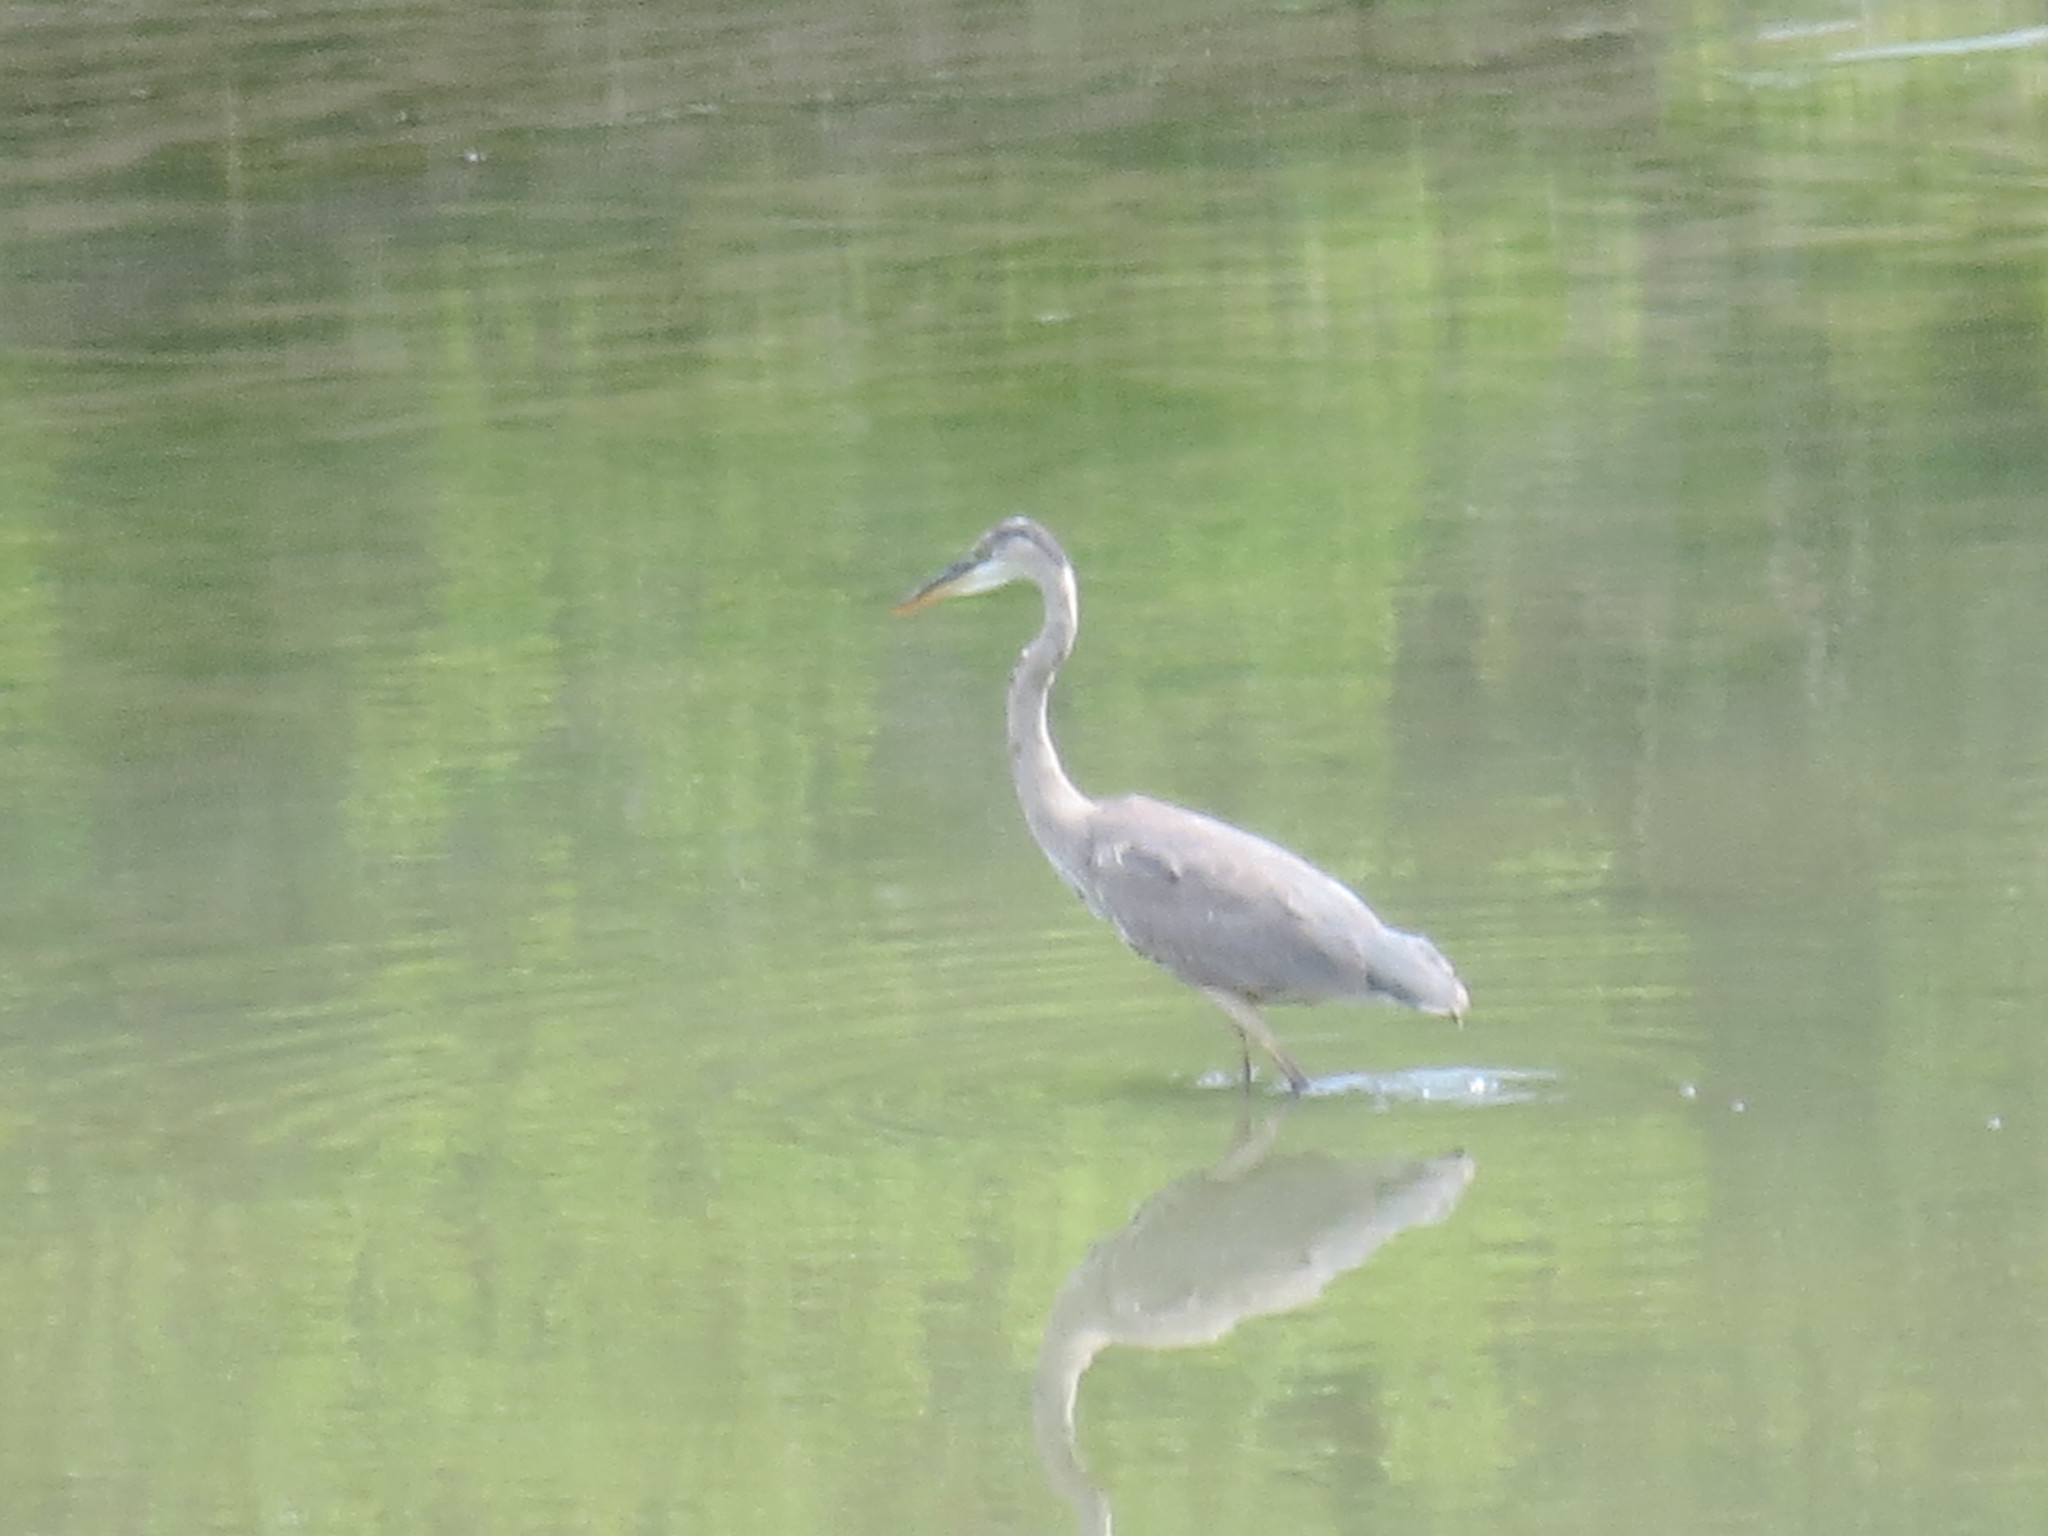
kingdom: Animalia
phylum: Chordata
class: Aves
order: Pelecaniformes
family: Ardeidae
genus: Ardea
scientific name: Ardea herodias
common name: Great blue heron
